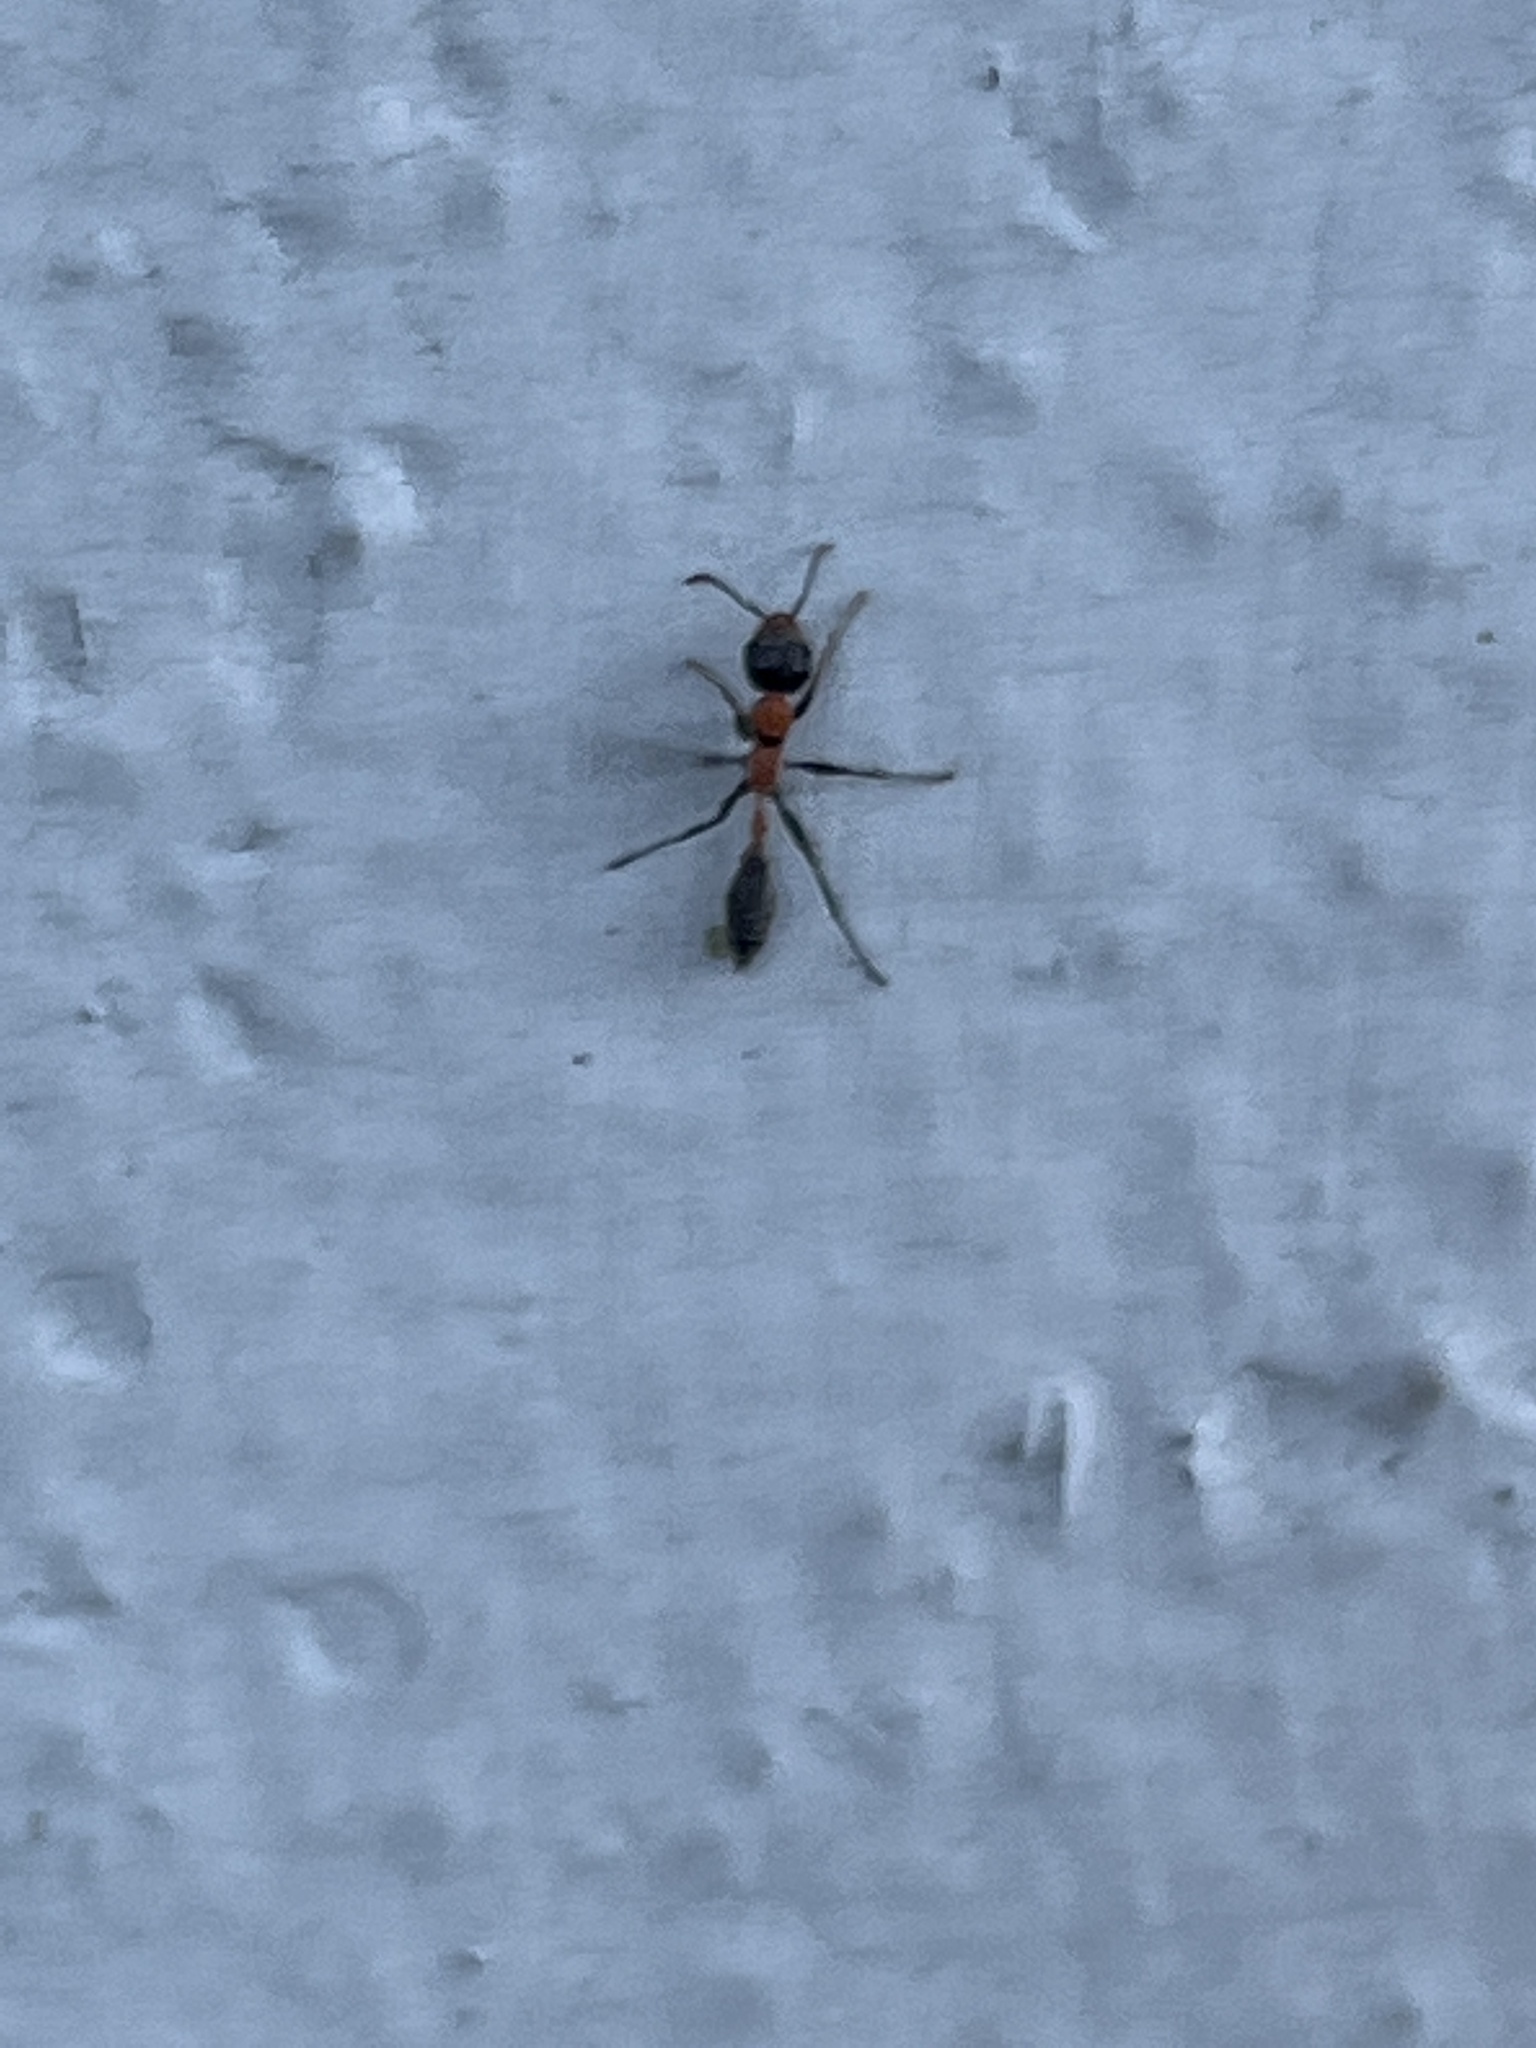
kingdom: Animalia
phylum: Arthropoda
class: Insecta
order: Hymenoptera
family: Formicidae
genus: Pseudomyrmex
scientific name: Pseudomyrmex gracilis
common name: Graceful twig ant
